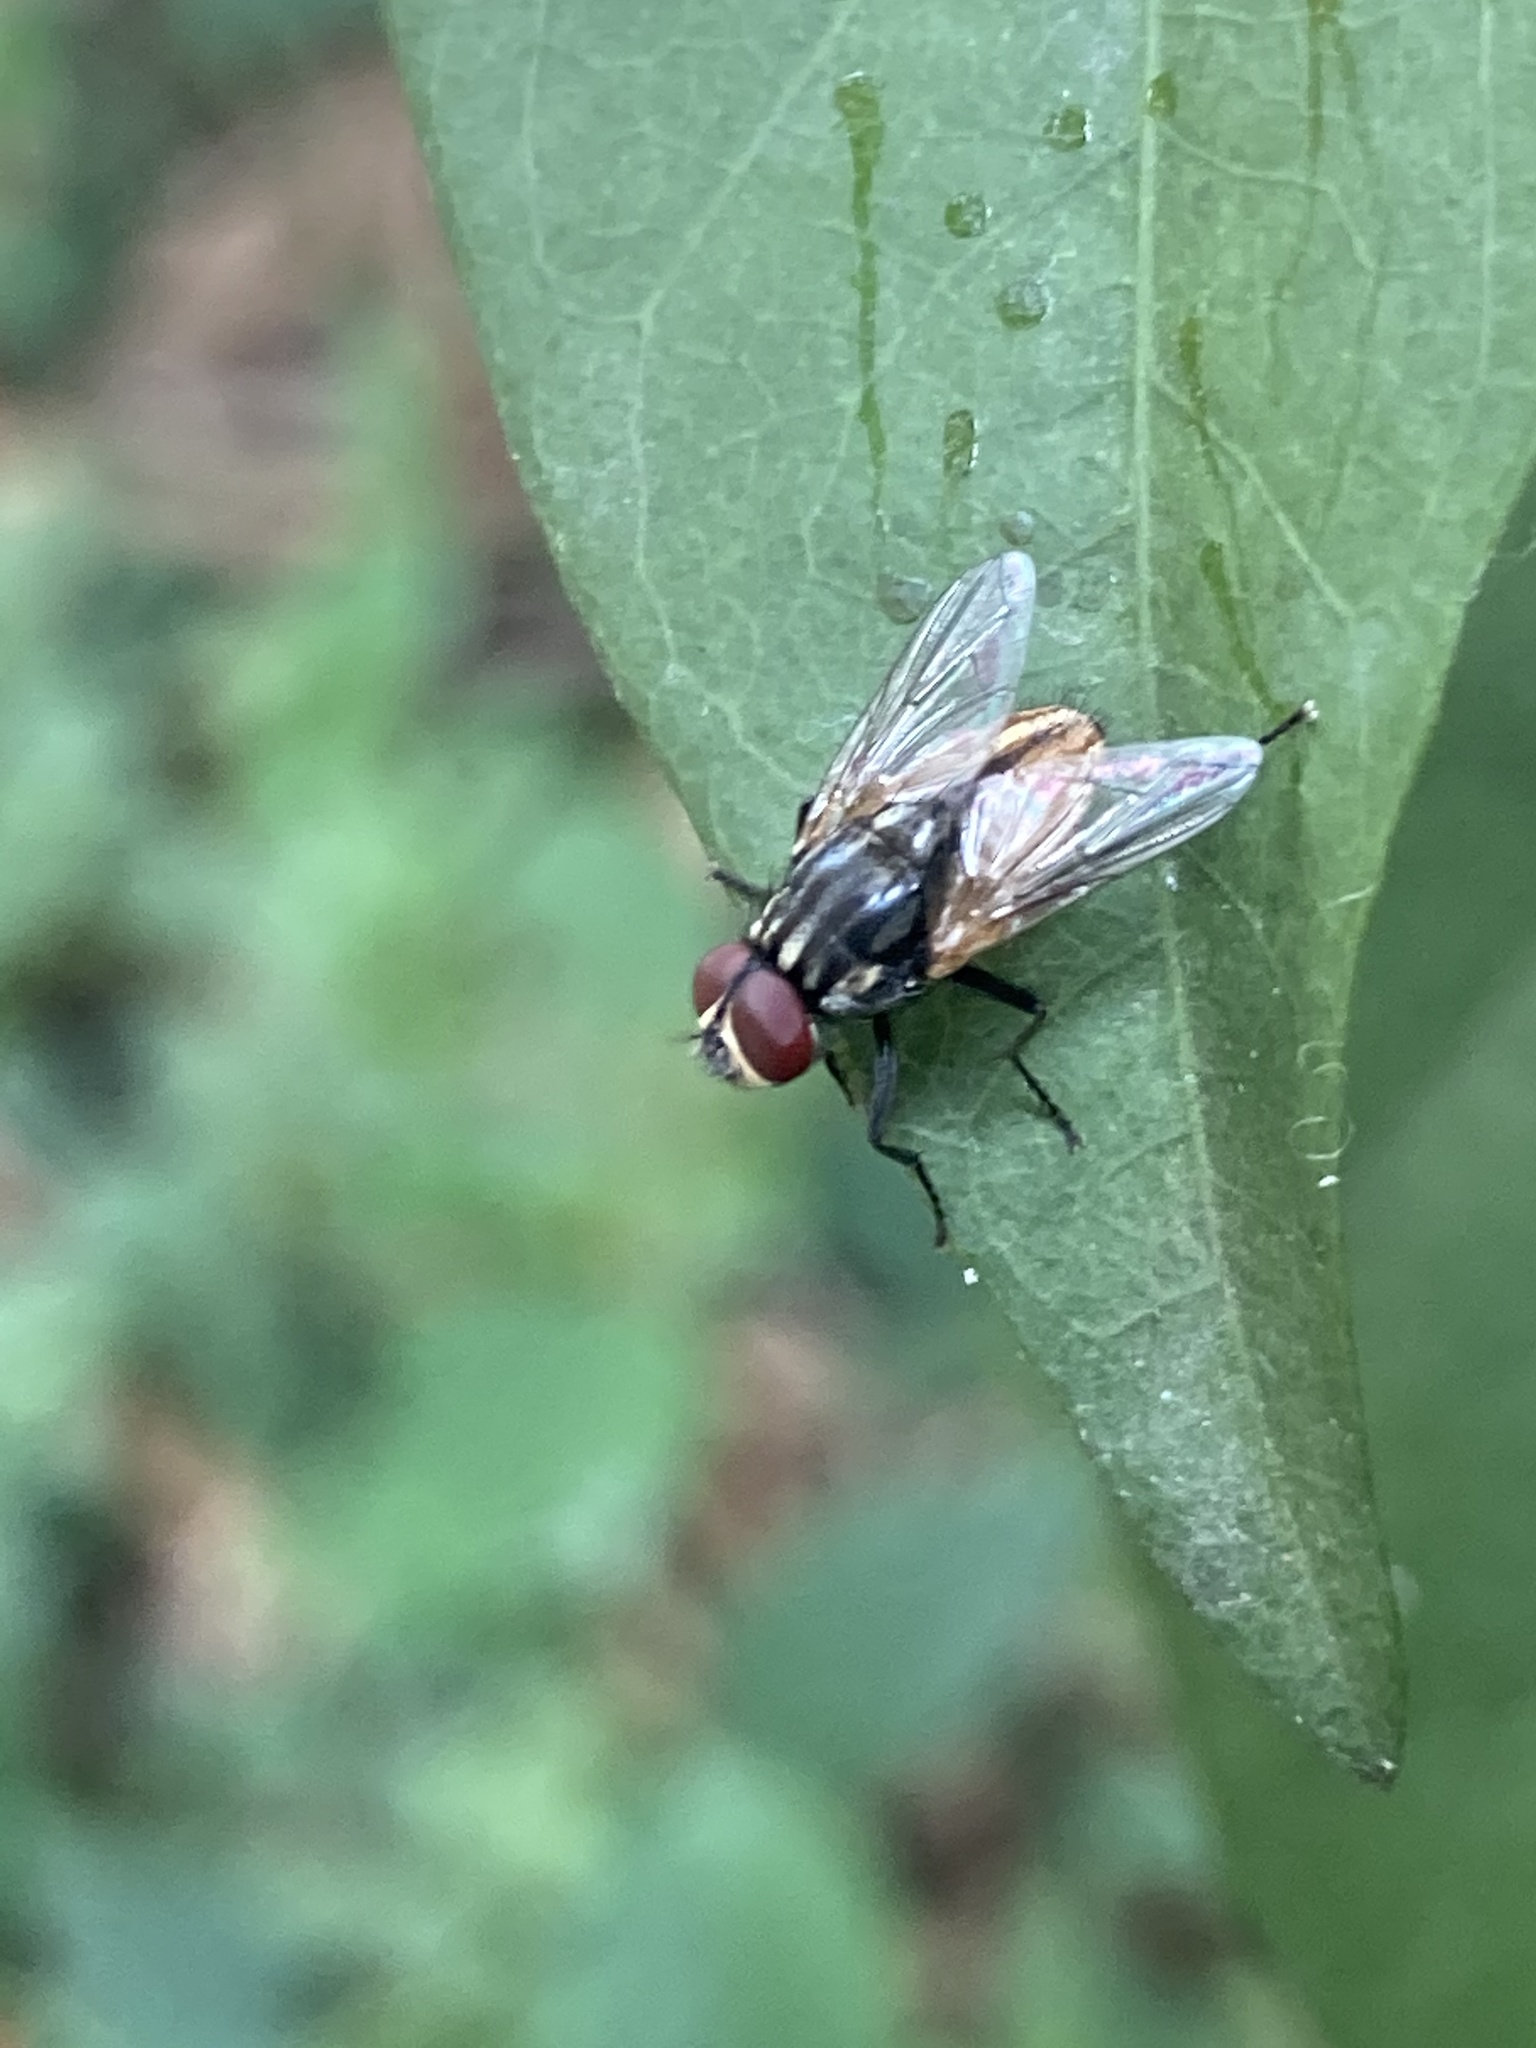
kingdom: Animalia
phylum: Arthropoda
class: Insecta
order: Diptera
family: Muscidae
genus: Musca
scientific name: Musca domestica
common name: House fly
